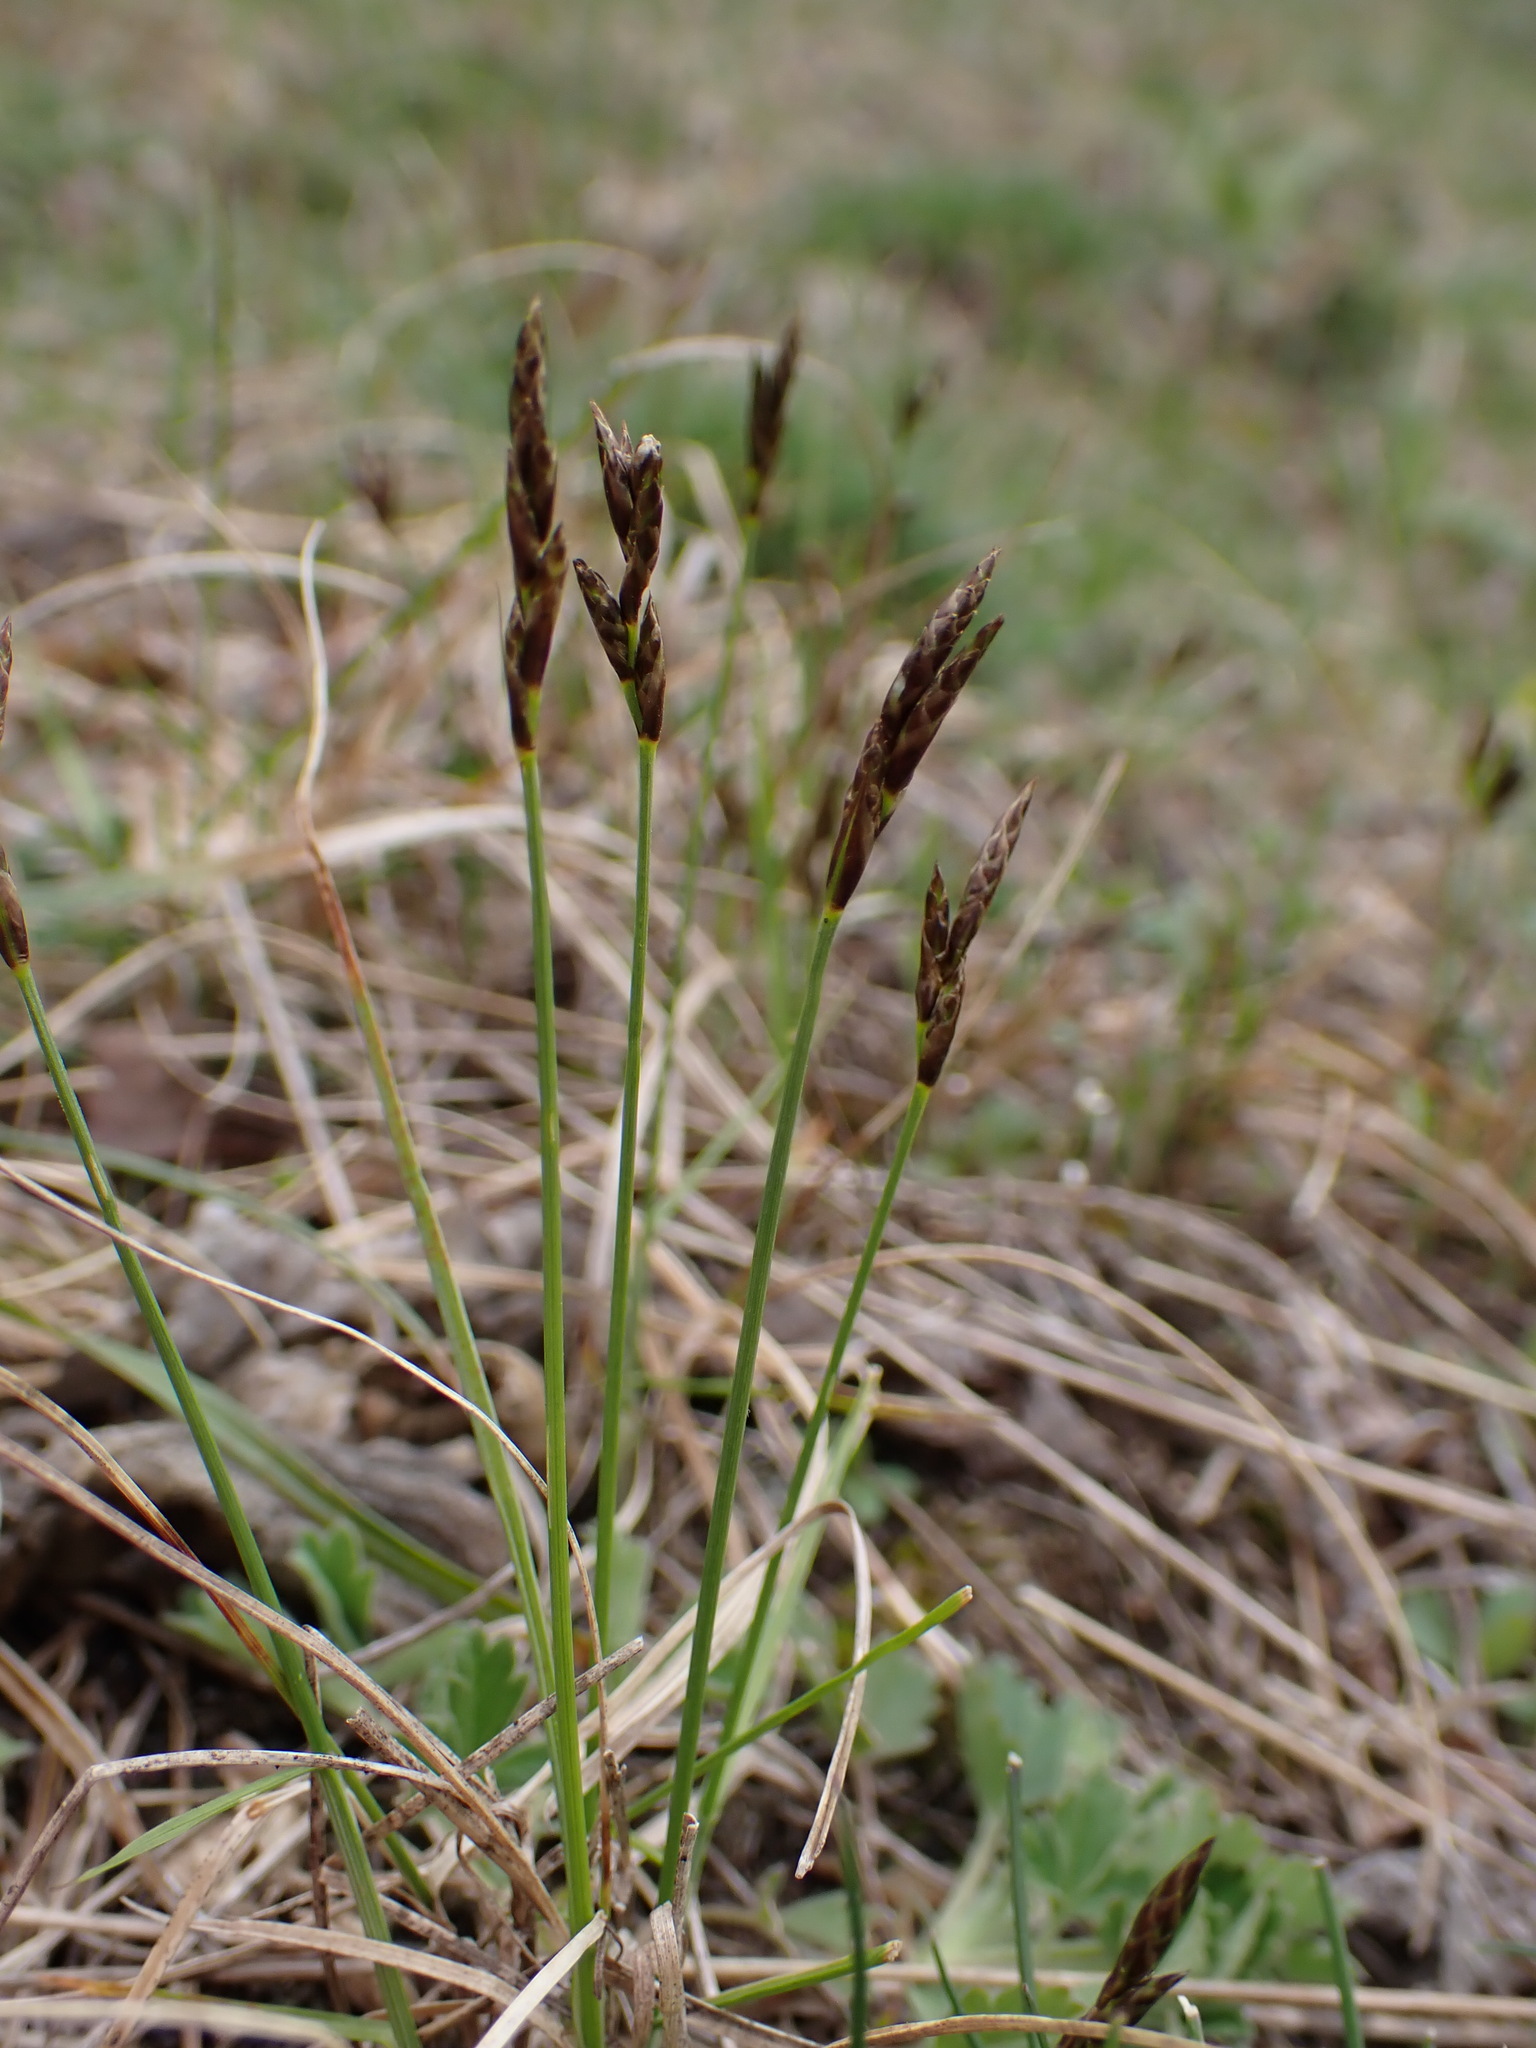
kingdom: Plantae
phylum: Tracheophyta
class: Liliopsida
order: Poales
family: Cyperaceae
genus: Carex
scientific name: Carex praecox
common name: Early sedge
